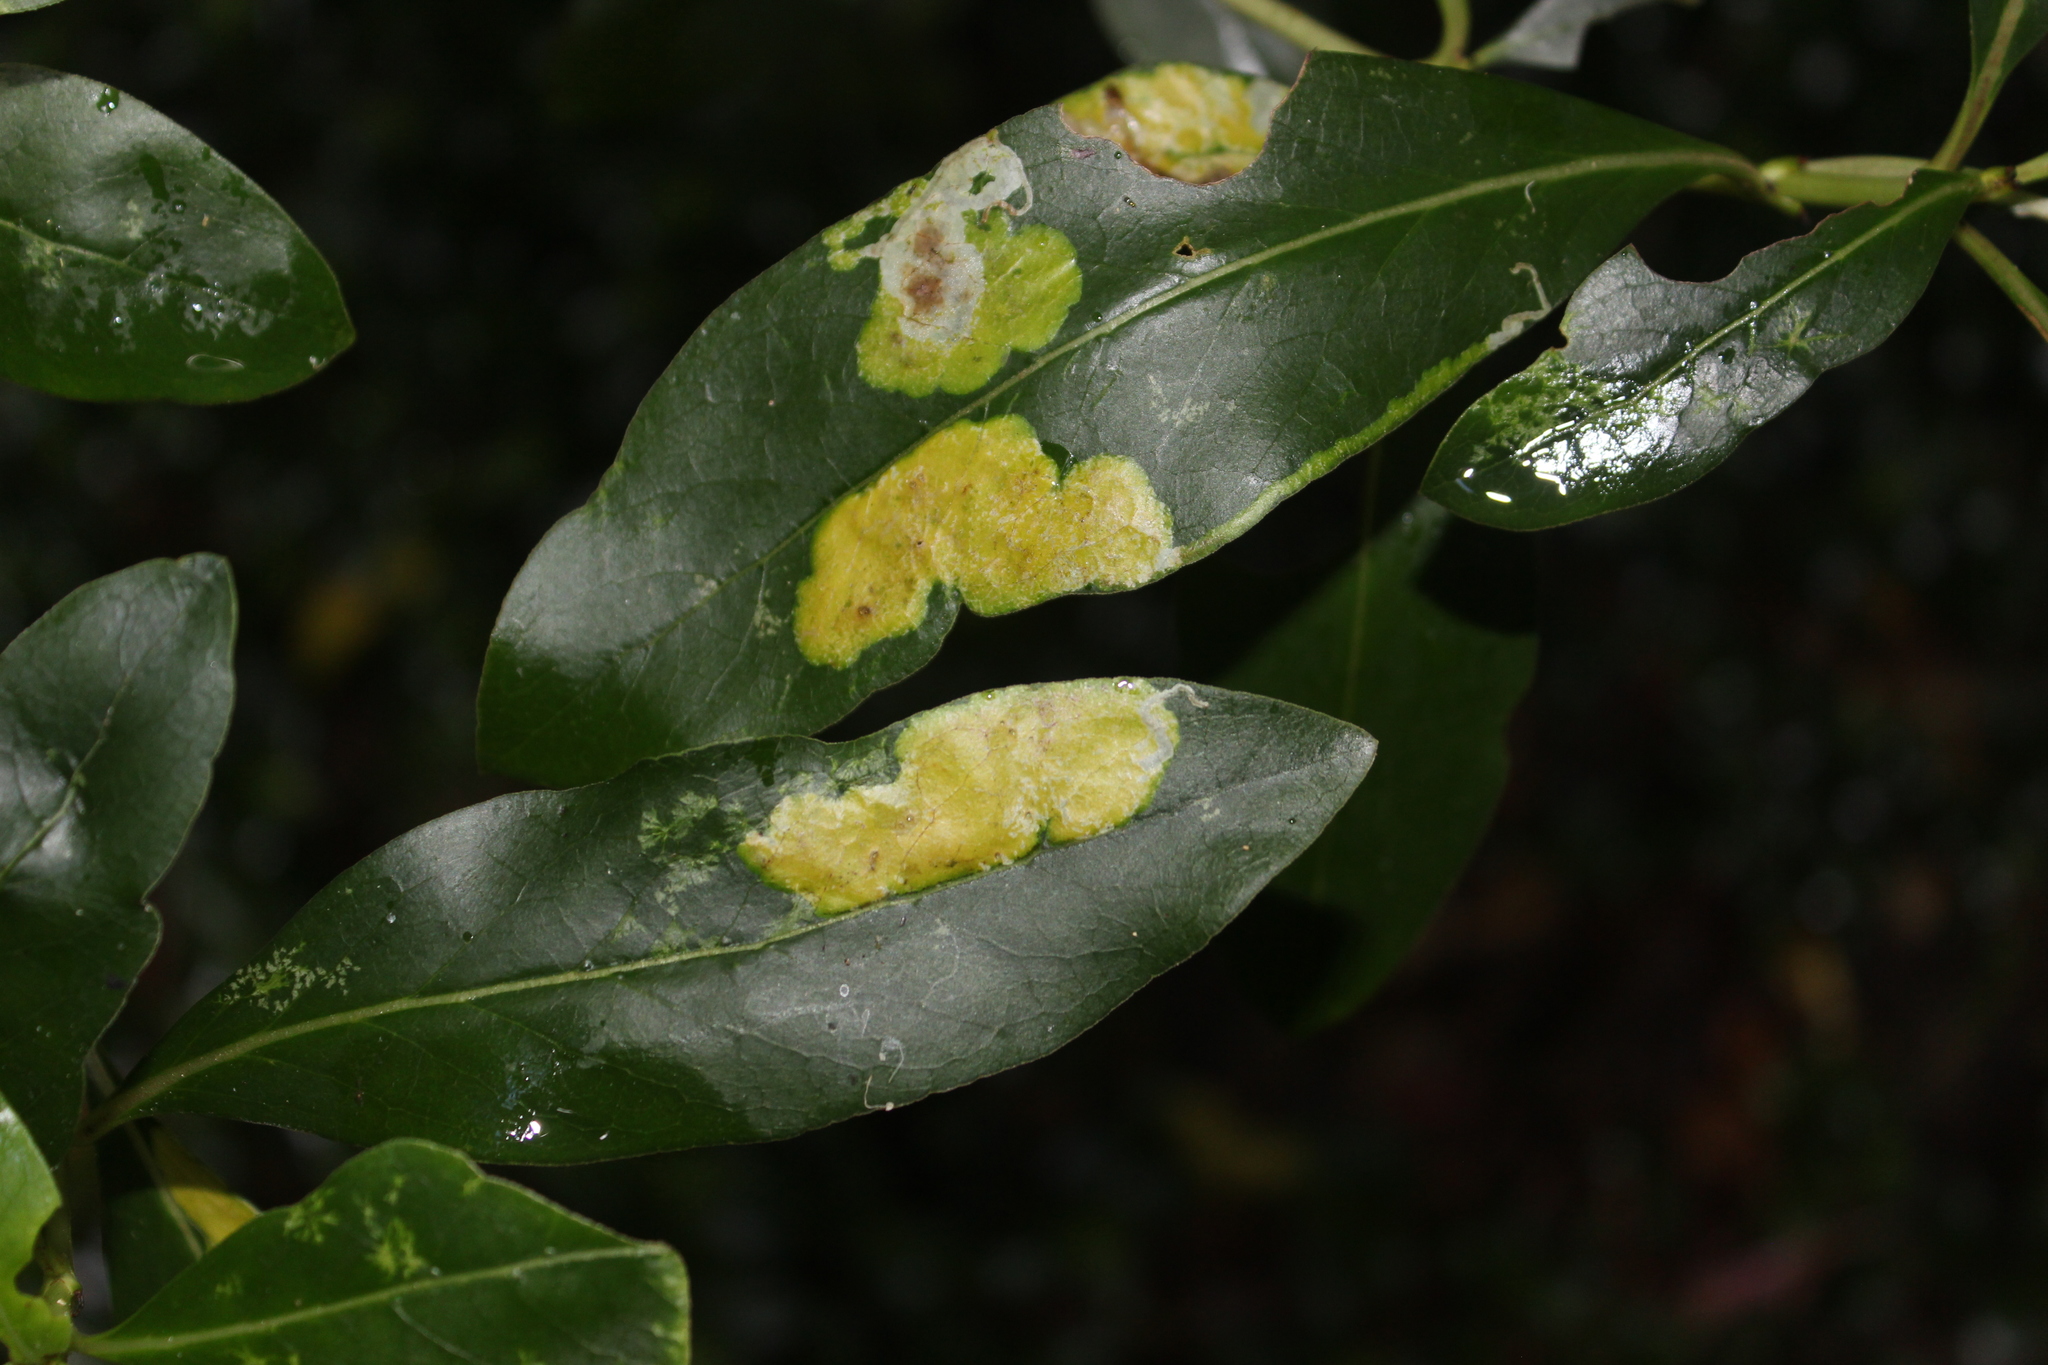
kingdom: Animalia
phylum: Arthropoda
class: Insecta
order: Lepidoptera
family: Gracillariidae
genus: Corythoxestis
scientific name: Corythoxestis zorionella
